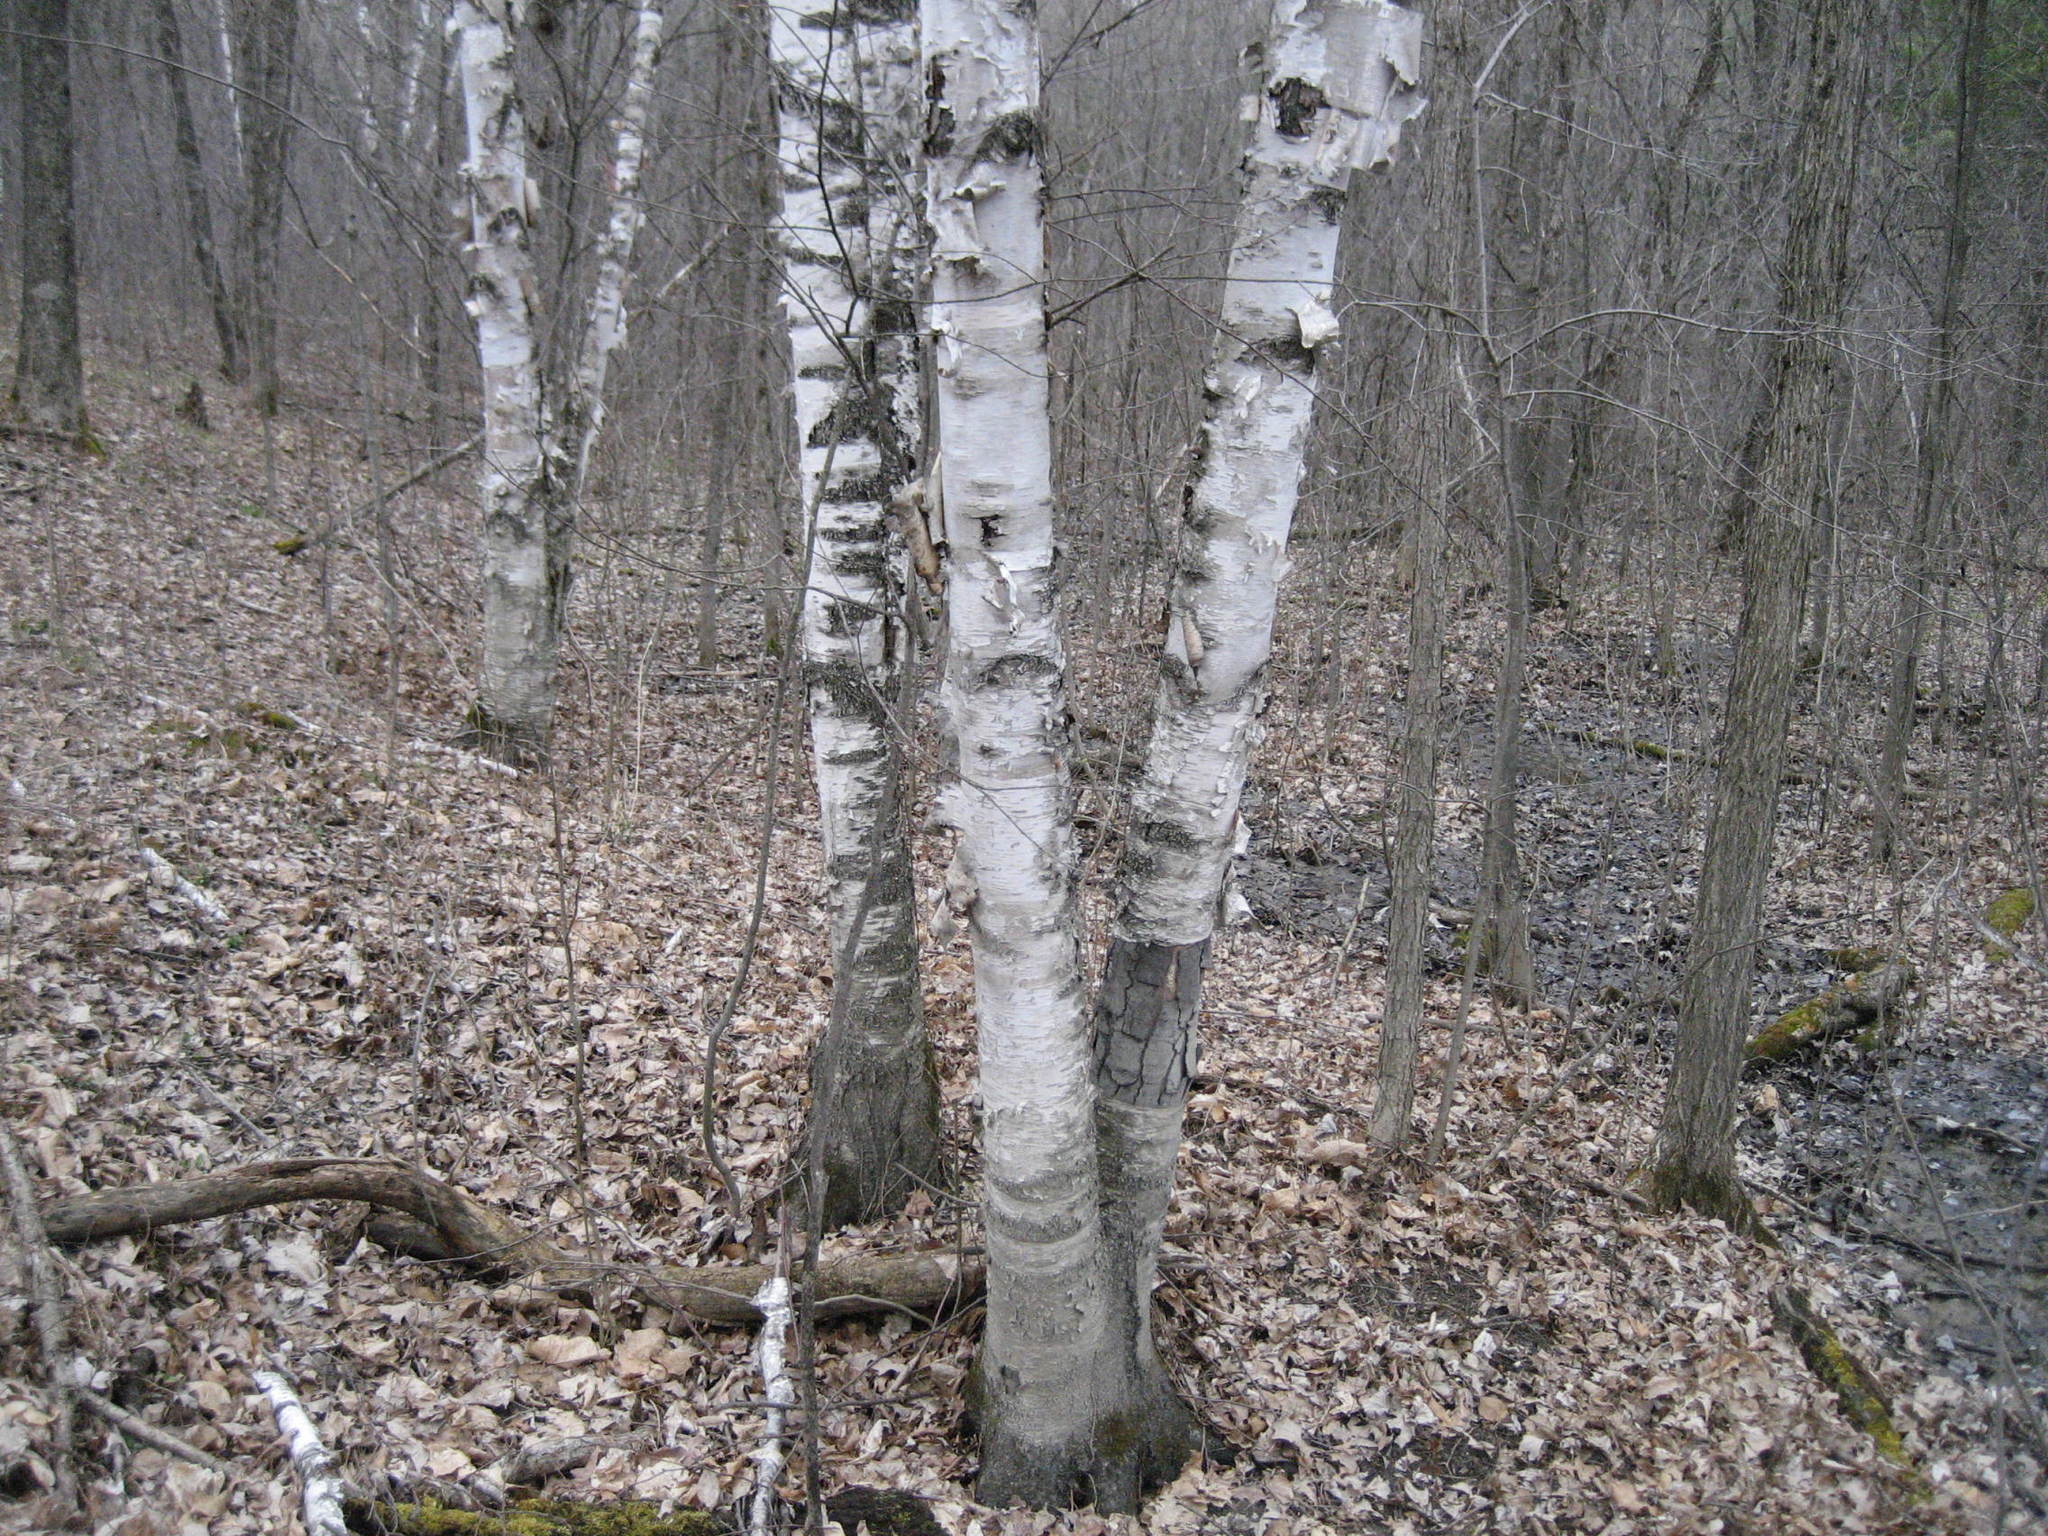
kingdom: Plantae
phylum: Tracheophyta
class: Magnoliopsida
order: Fagales
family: Betulaceae
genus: Betula
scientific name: Betula papyrifera
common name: Paper birch
